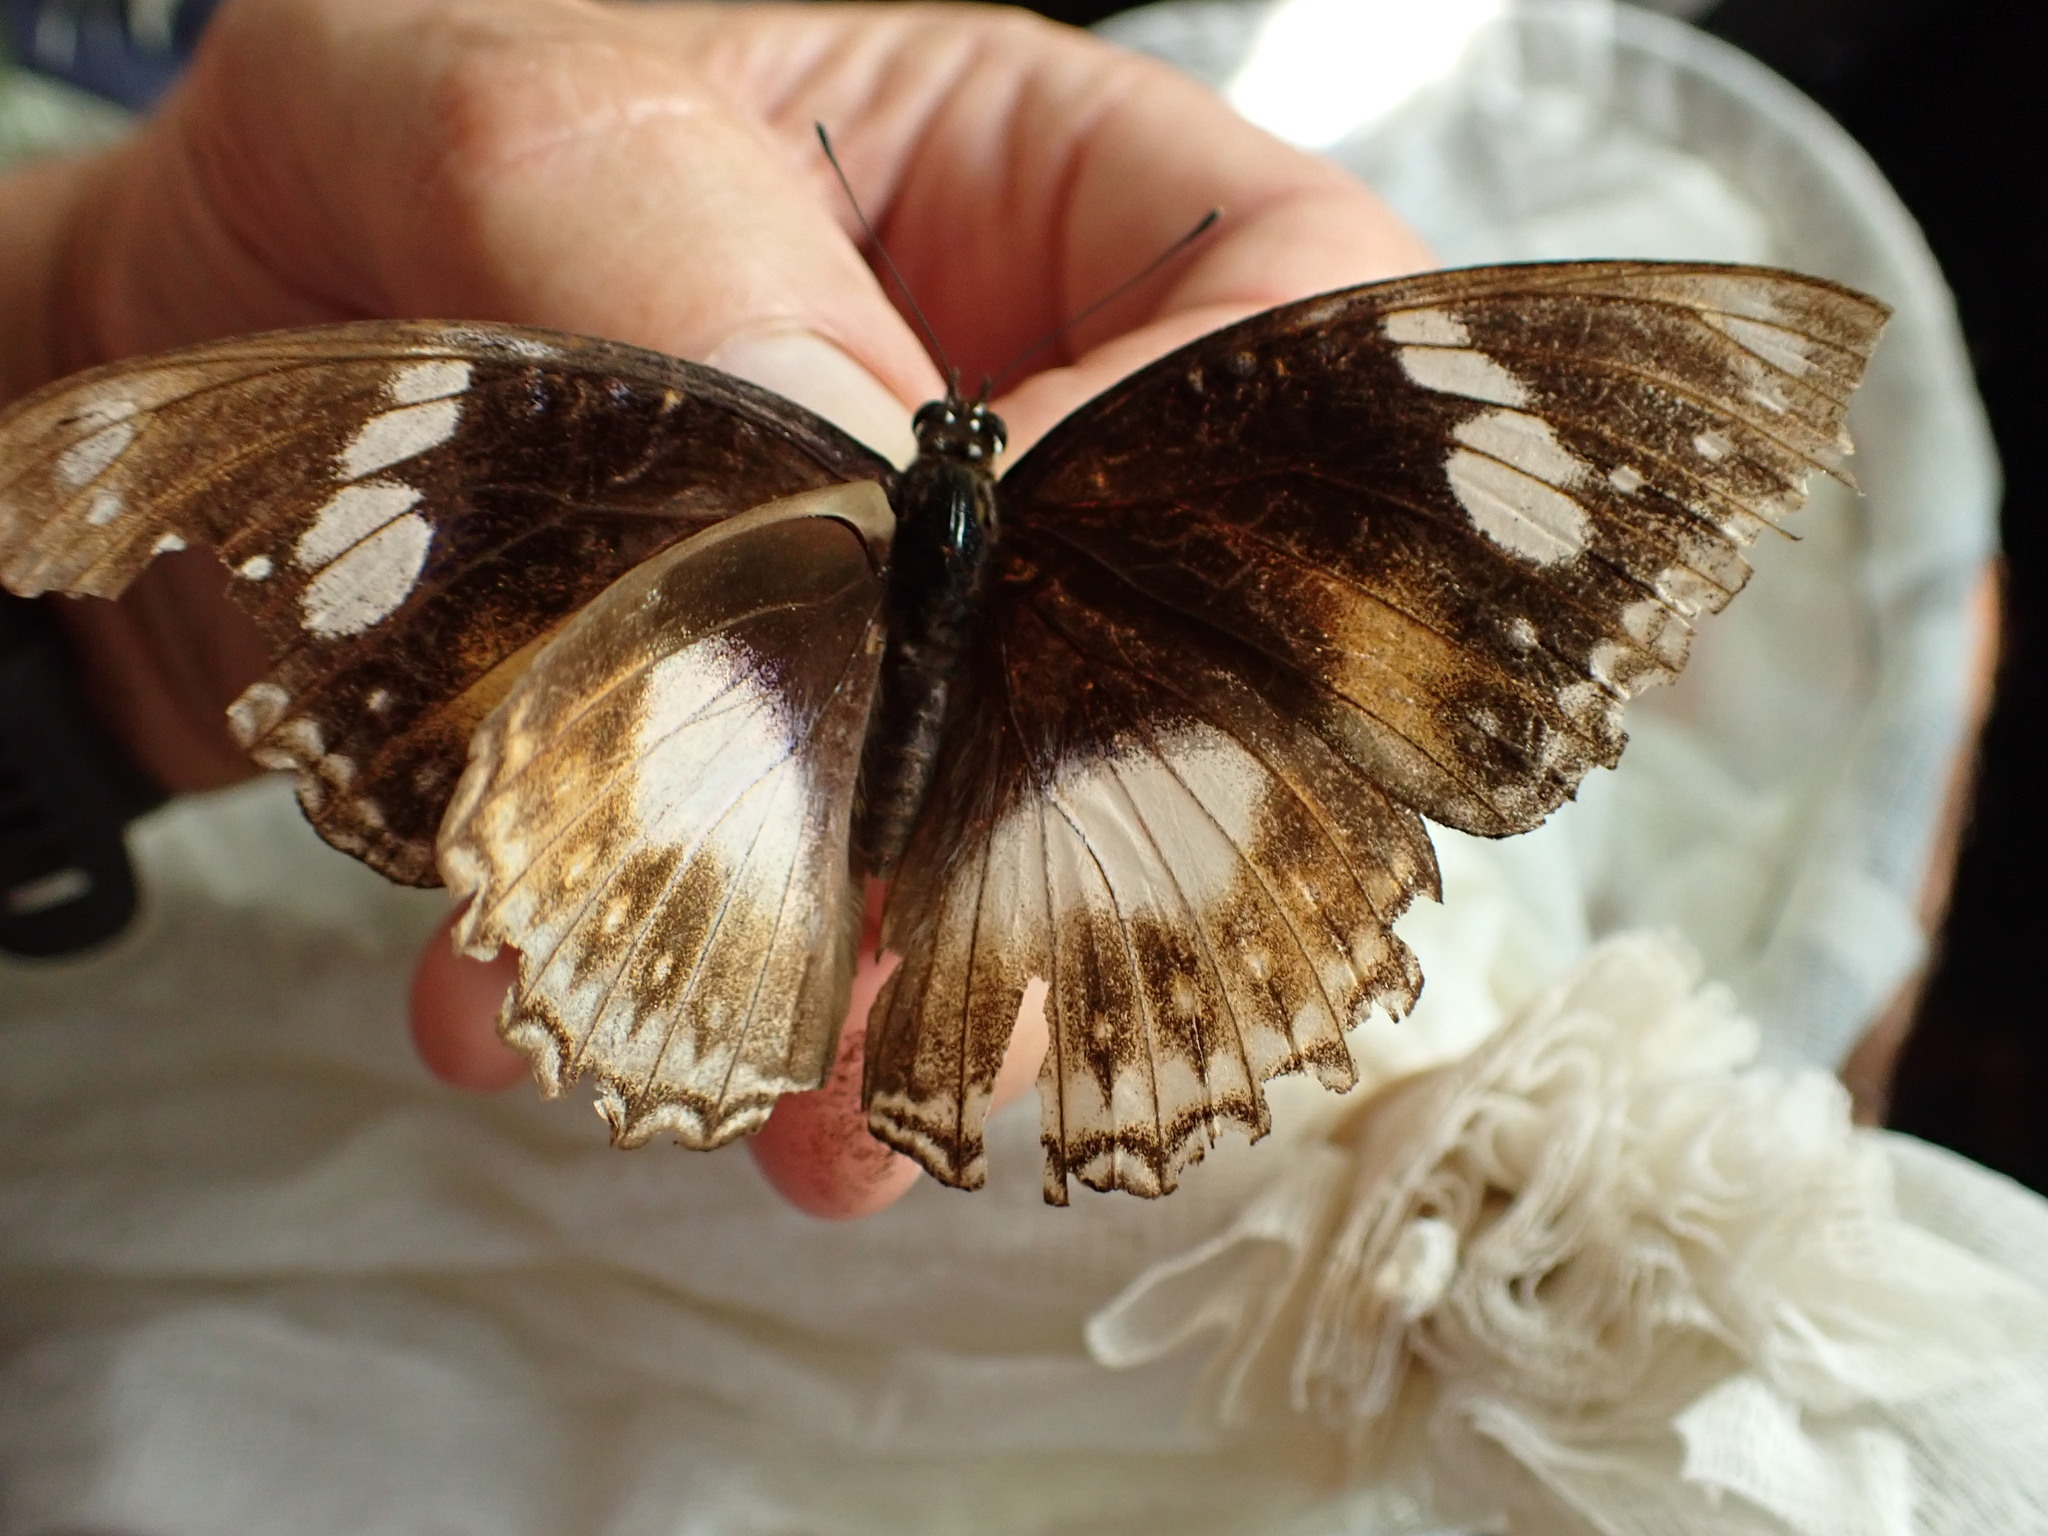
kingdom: Animalia
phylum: Arthropoda
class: Insecta
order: Lepidoptera
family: Nymphalidae
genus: Hypolimnas
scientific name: Hypolimnas bolina
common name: Great eggfly
